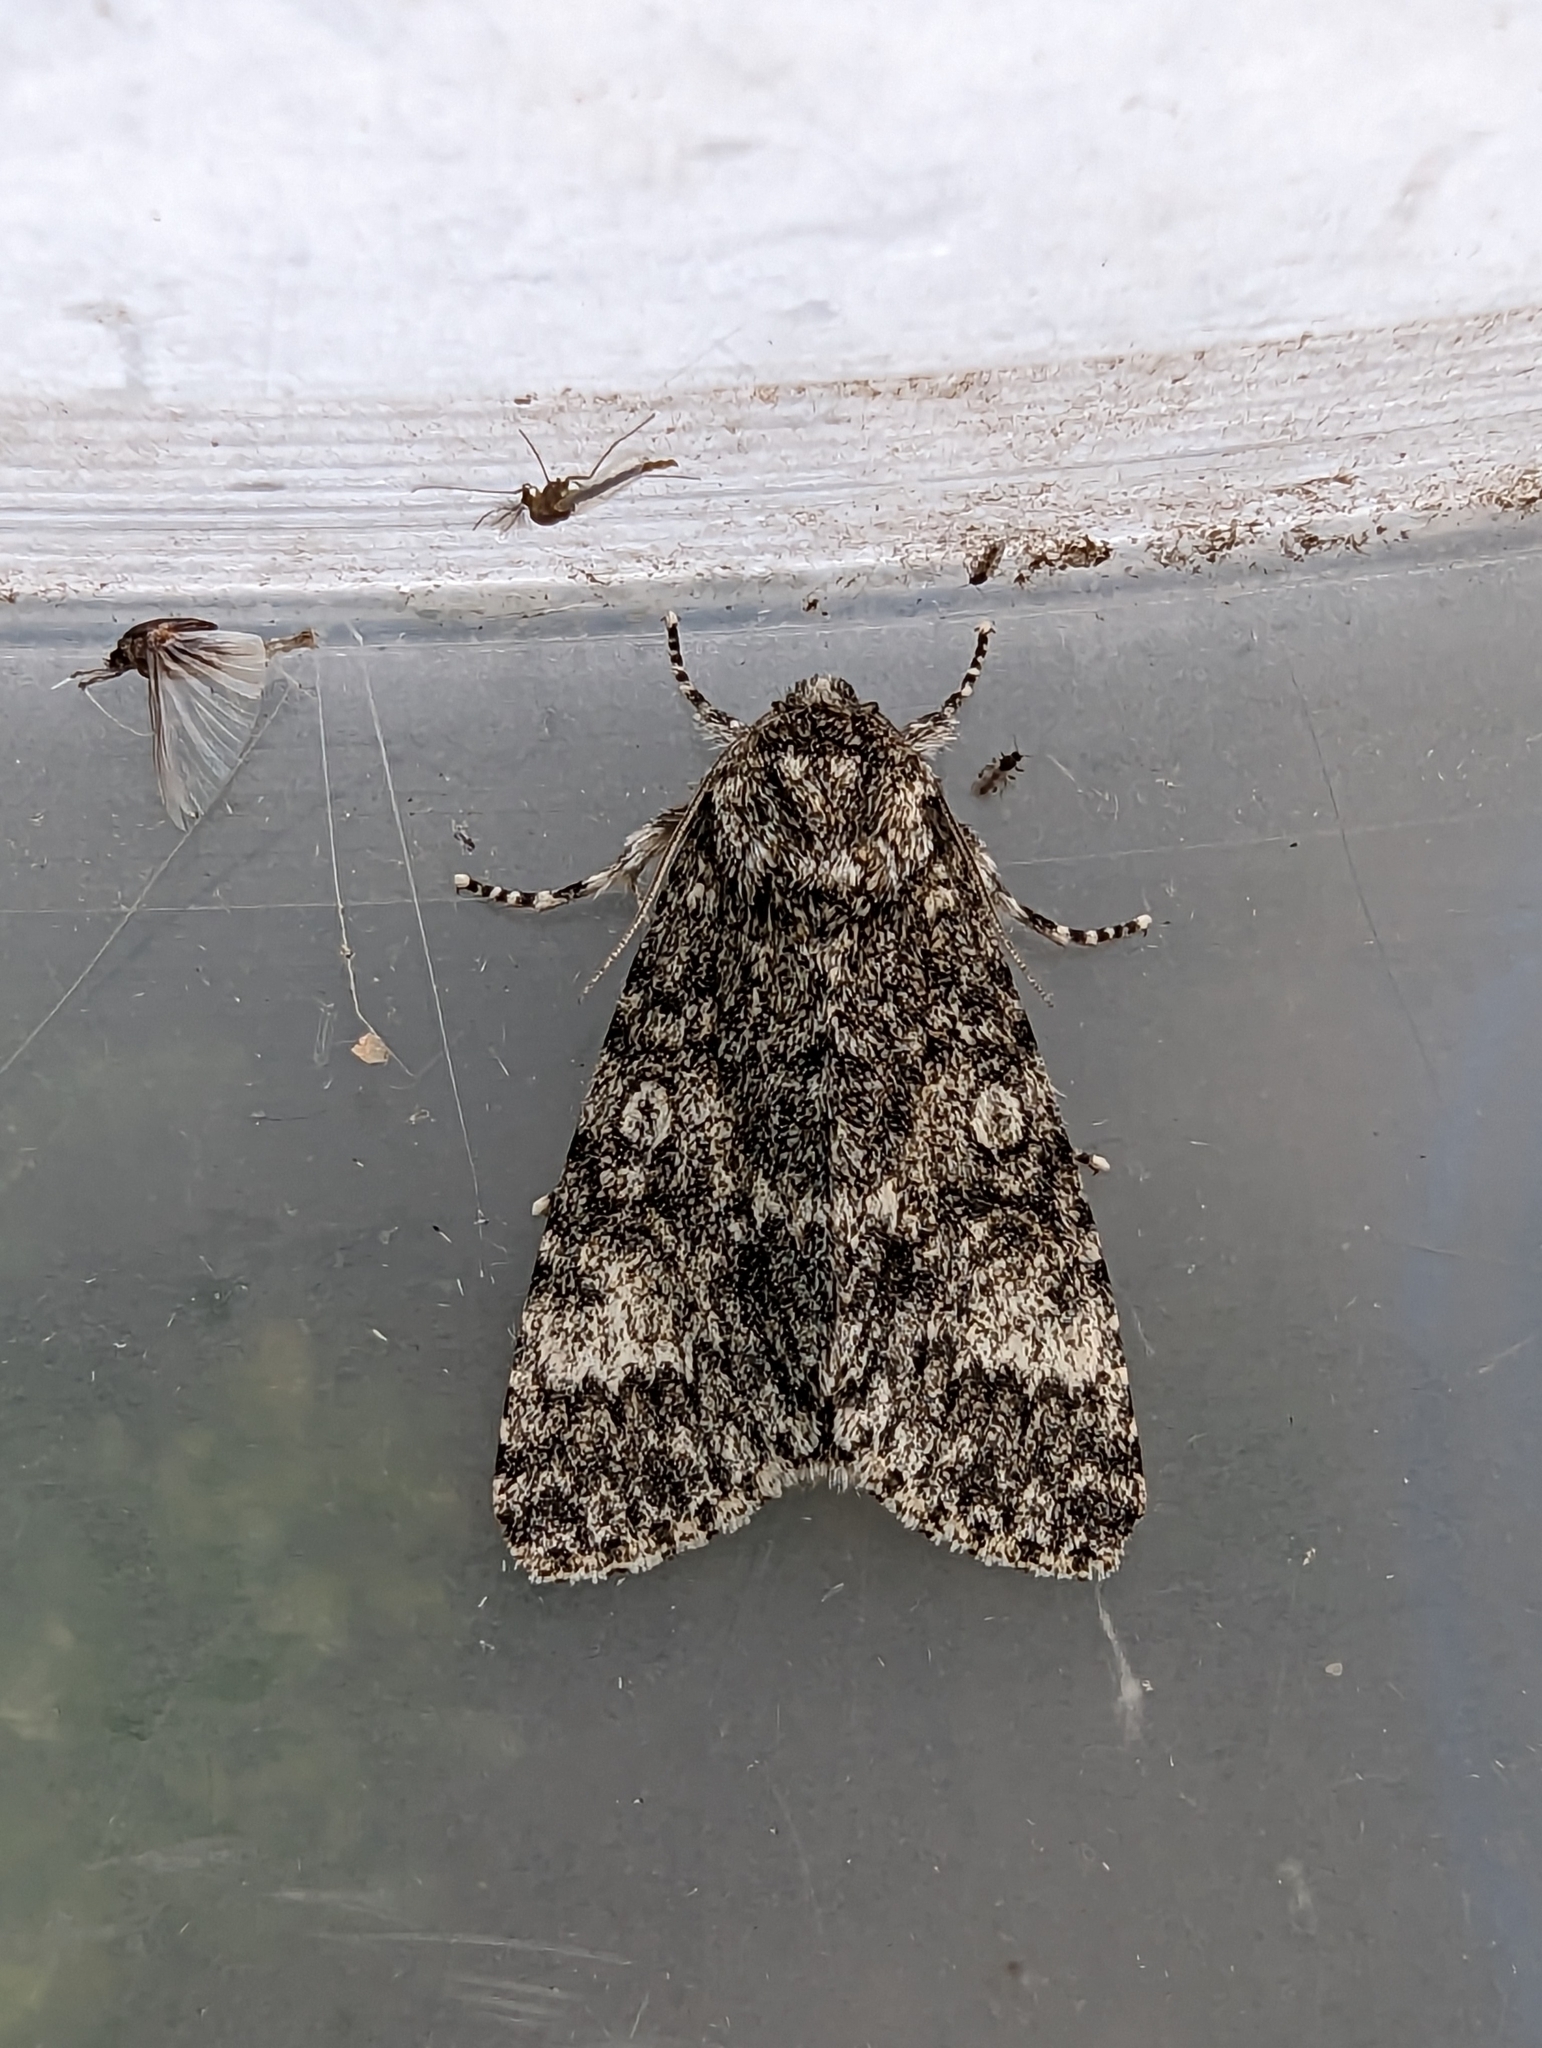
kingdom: Animalia
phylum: Arthropoda
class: Insecta
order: Lepidoptera
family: Noctuidae
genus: Acronicta
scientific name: Acronicta megacephala
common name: Poplar grey
